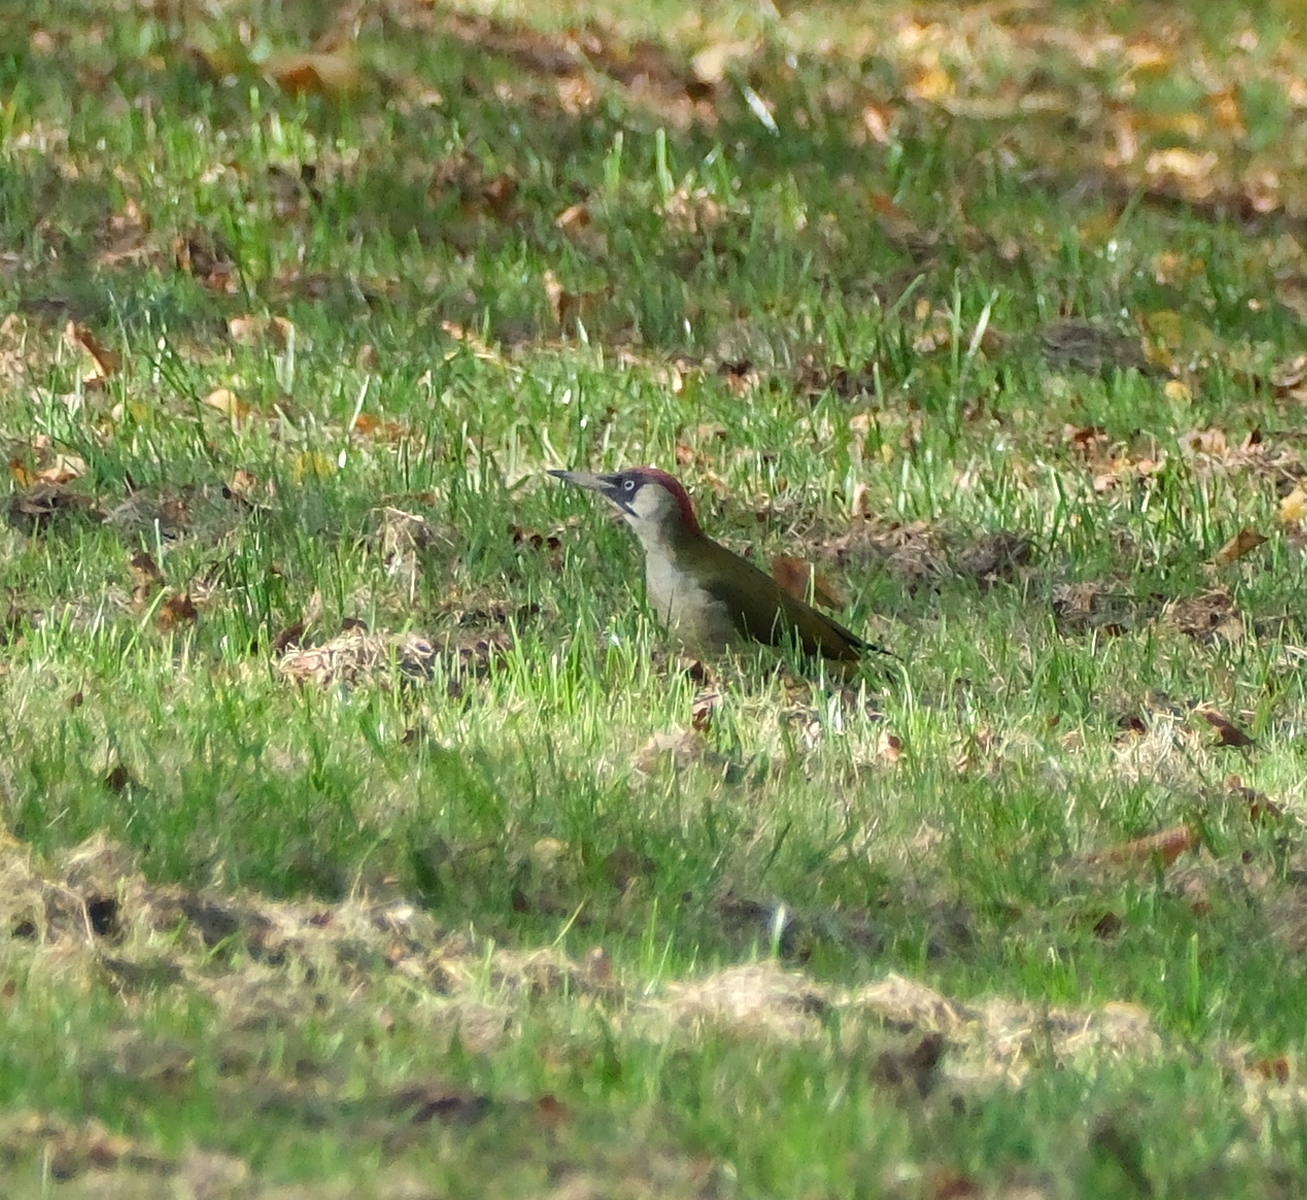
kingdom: Animalia
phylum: Chordata
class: Aves
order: Piciformes
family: Picidae
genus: Picus
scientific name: Picus viridis
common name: European green woodpecker
